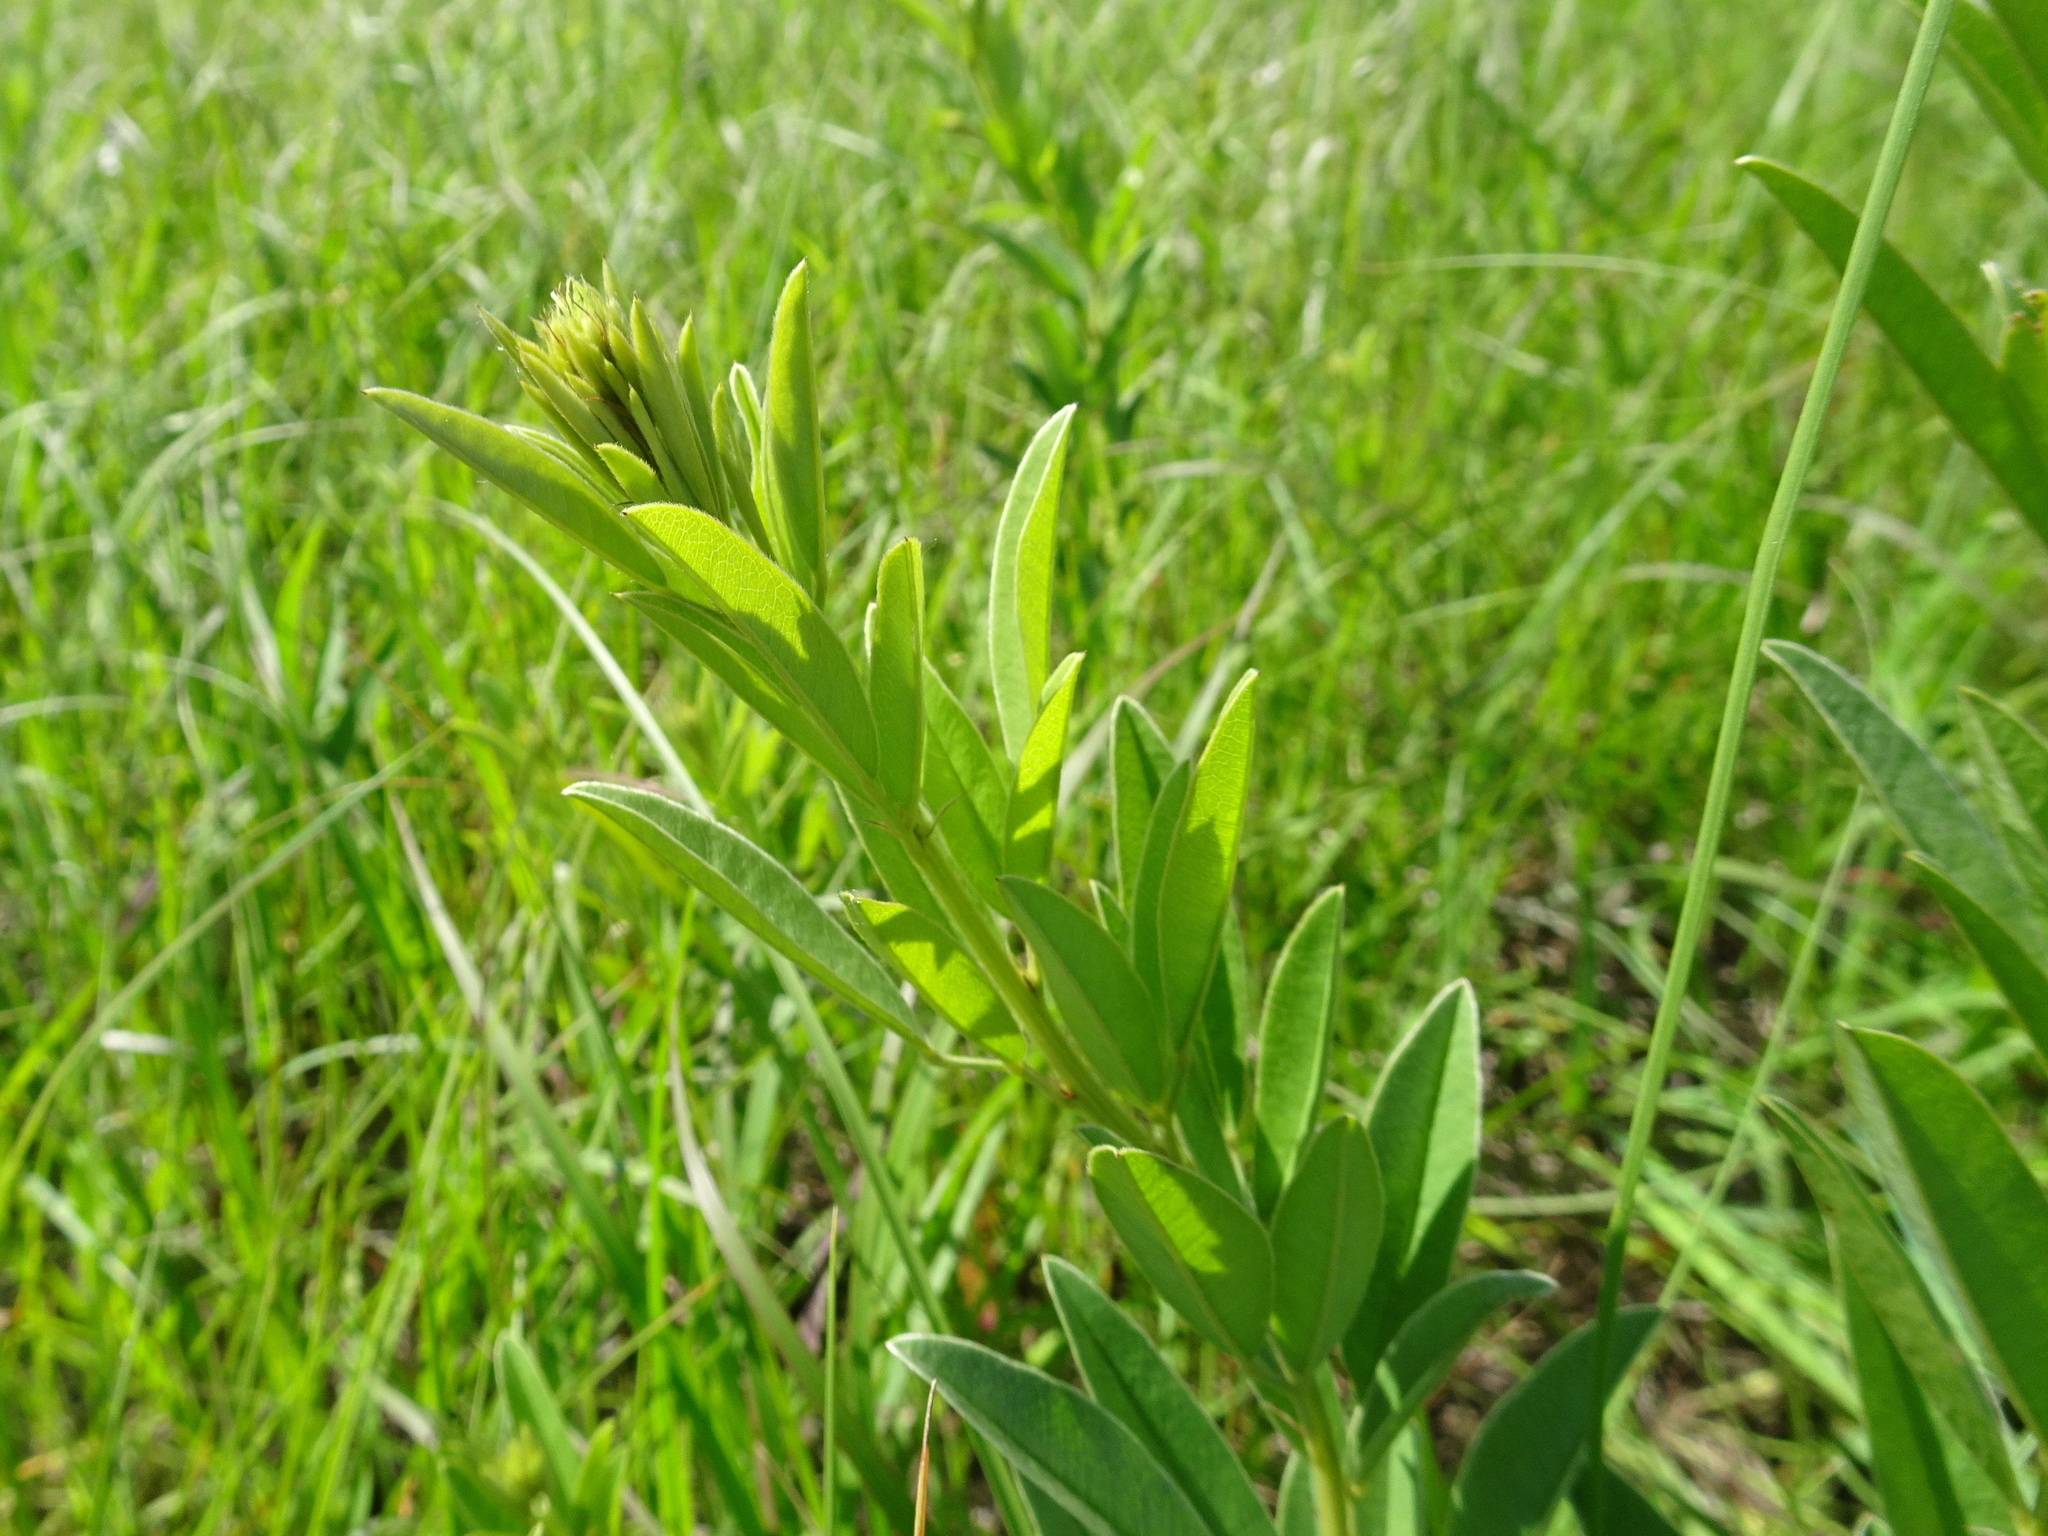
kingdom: Plantae
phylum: Tracheophyta
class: Magnoliopsida
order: Fabales
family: Fabaceae
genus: Lespedeza
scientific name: Lespedeza capitata
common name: Dusty clover
